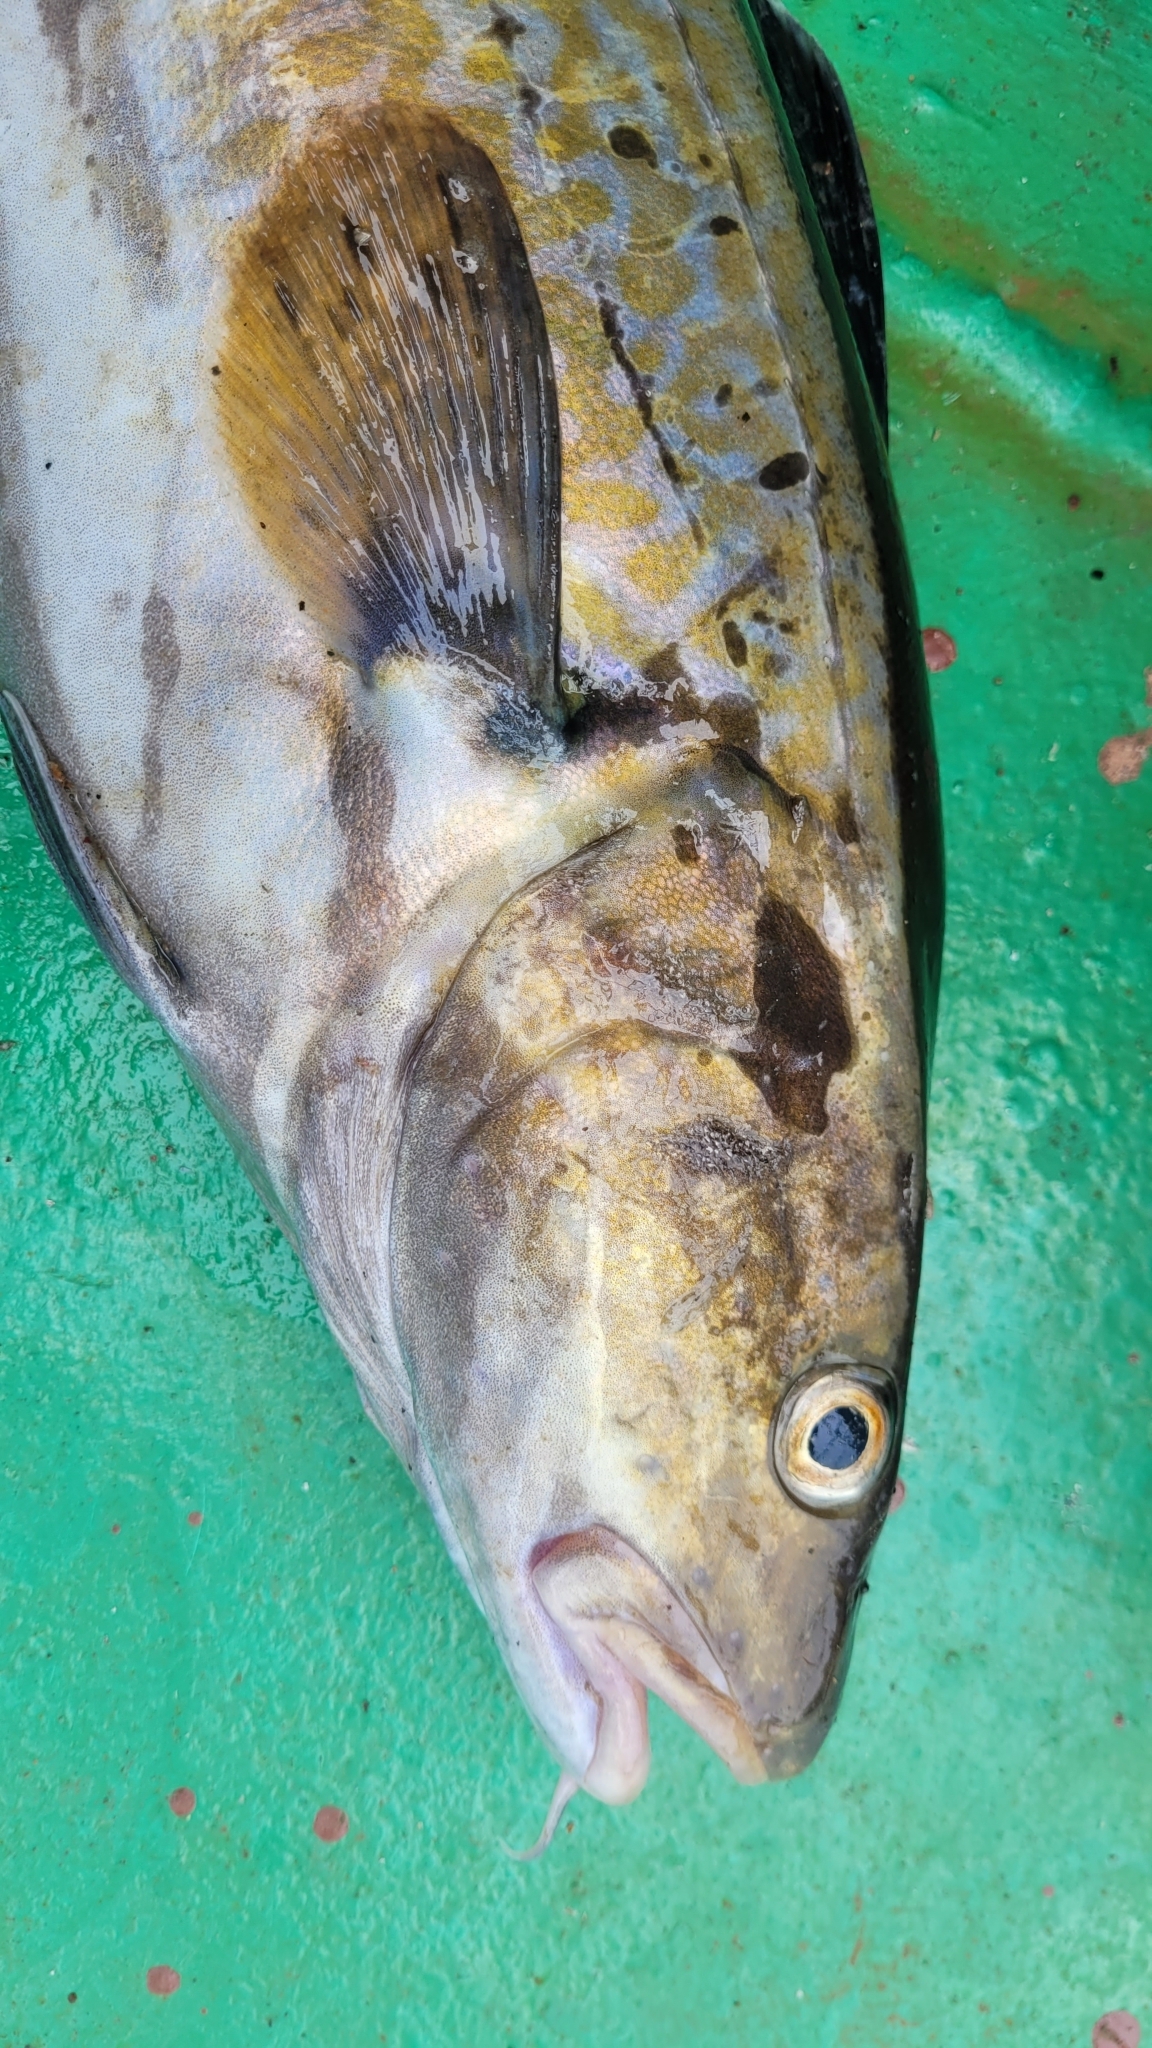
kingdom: Animalia
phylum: Chordata
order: Gadiformes
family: Gadidae
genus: Gadus
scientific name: Gadus macrocephalus
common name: Pacific cod
